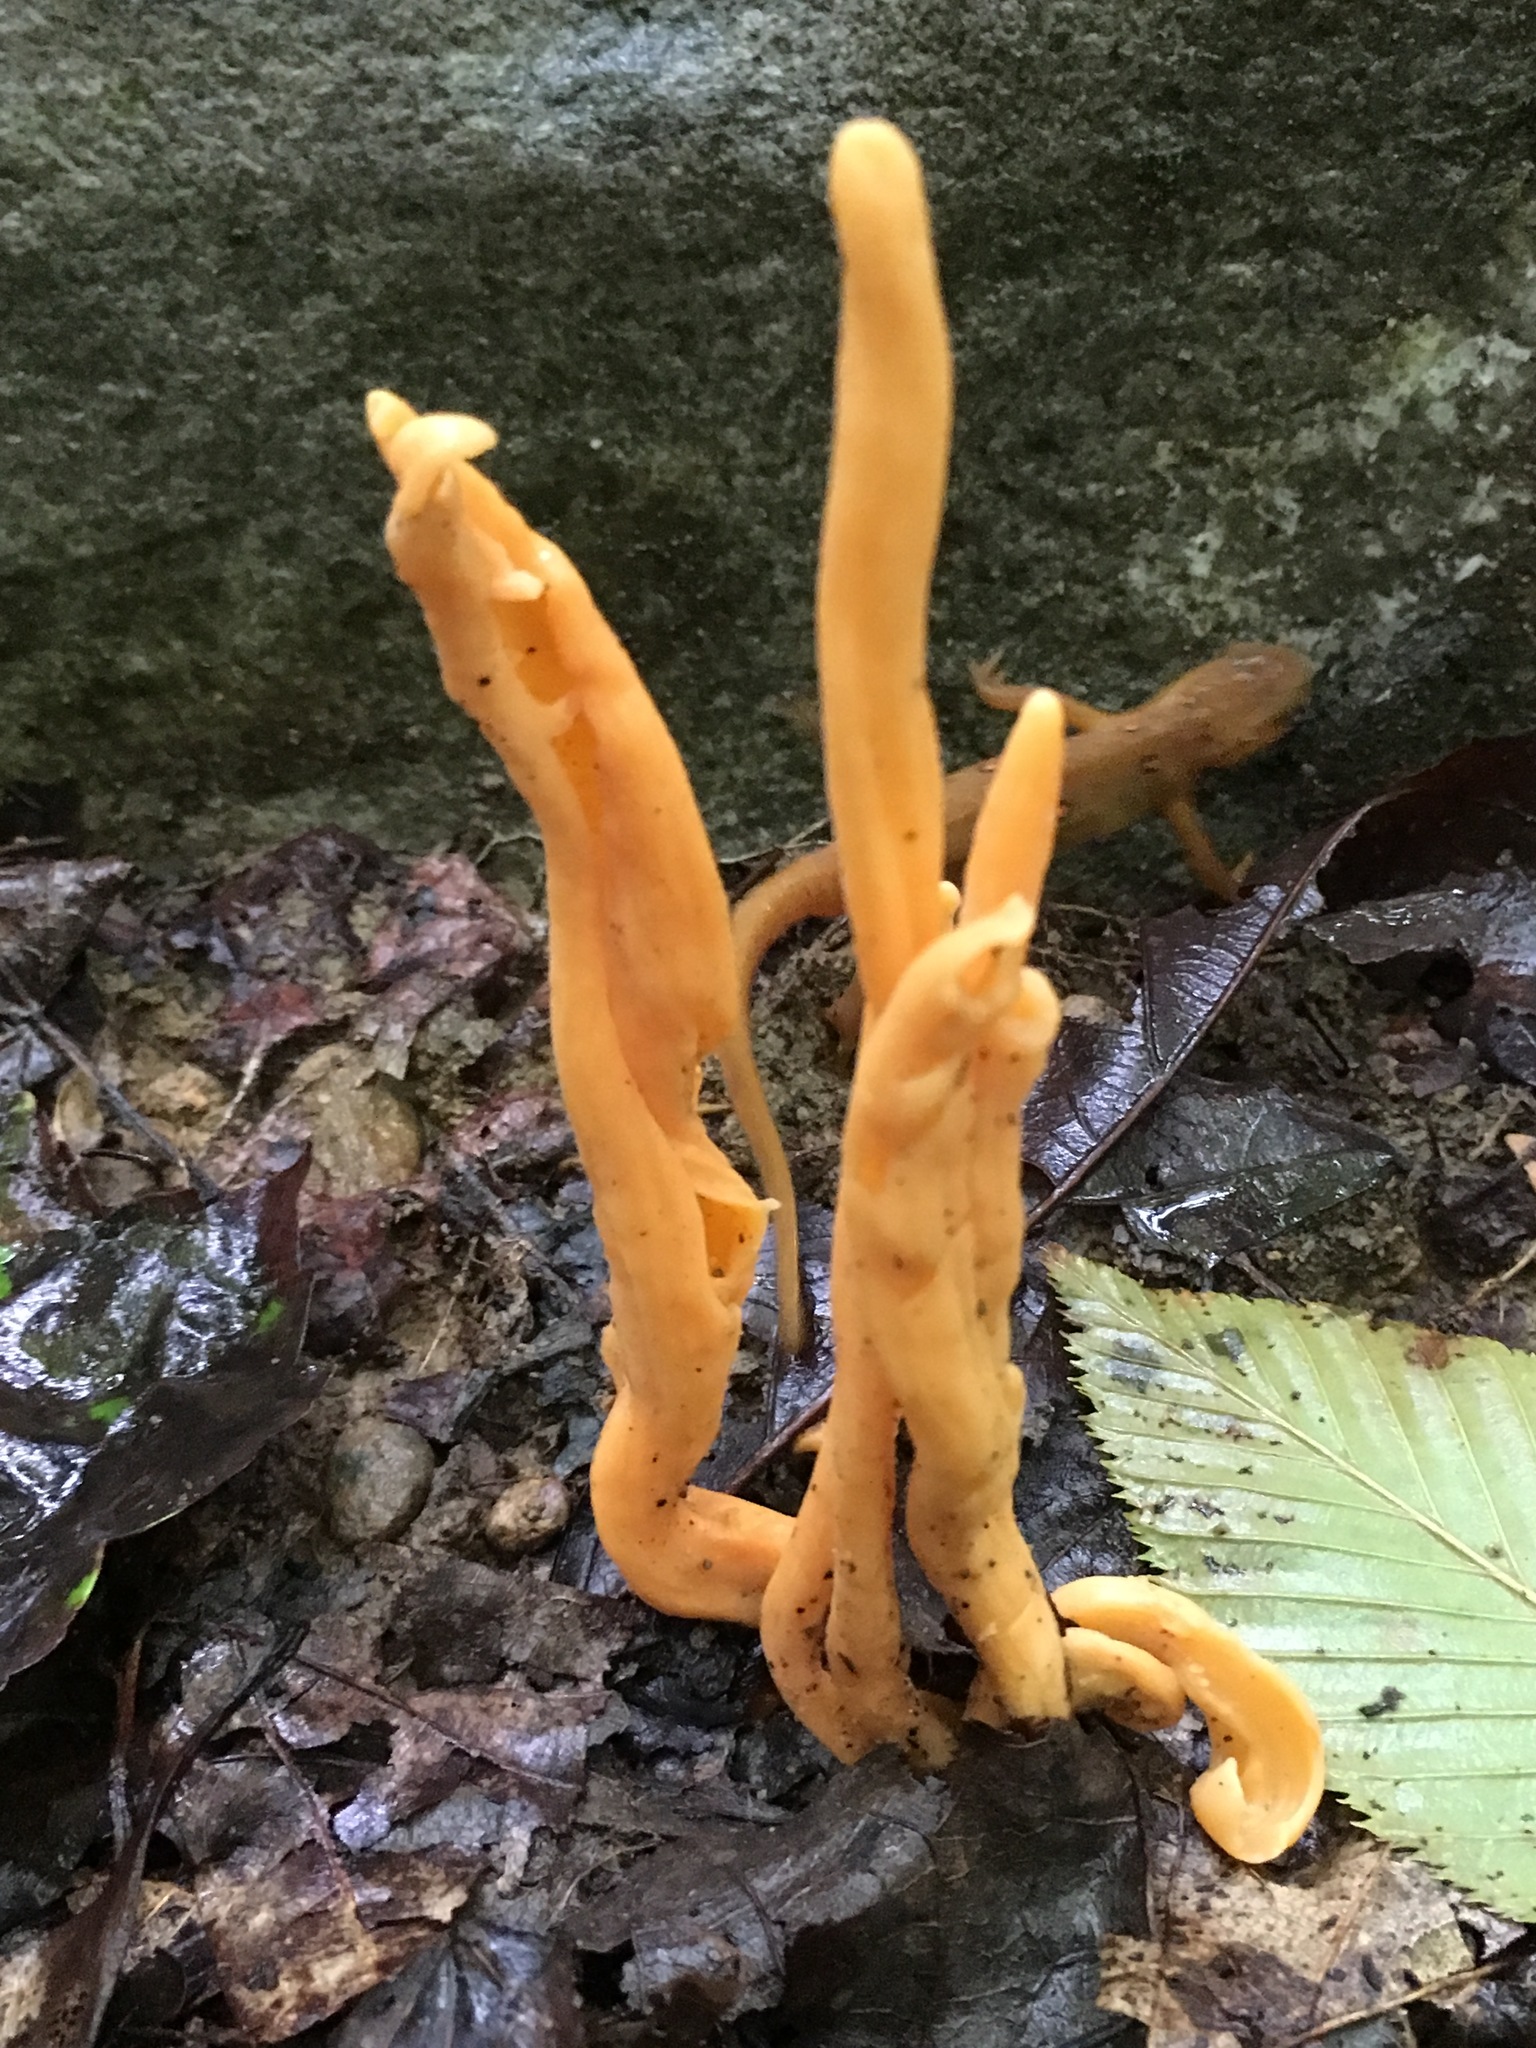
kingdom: Fungi
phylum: Basidiomycota
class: Agaricomycetes
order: Agaricales
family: Clavariaceae
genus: Clavulinopsis
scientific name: Clavulinopsis aurantiocinnabarina
